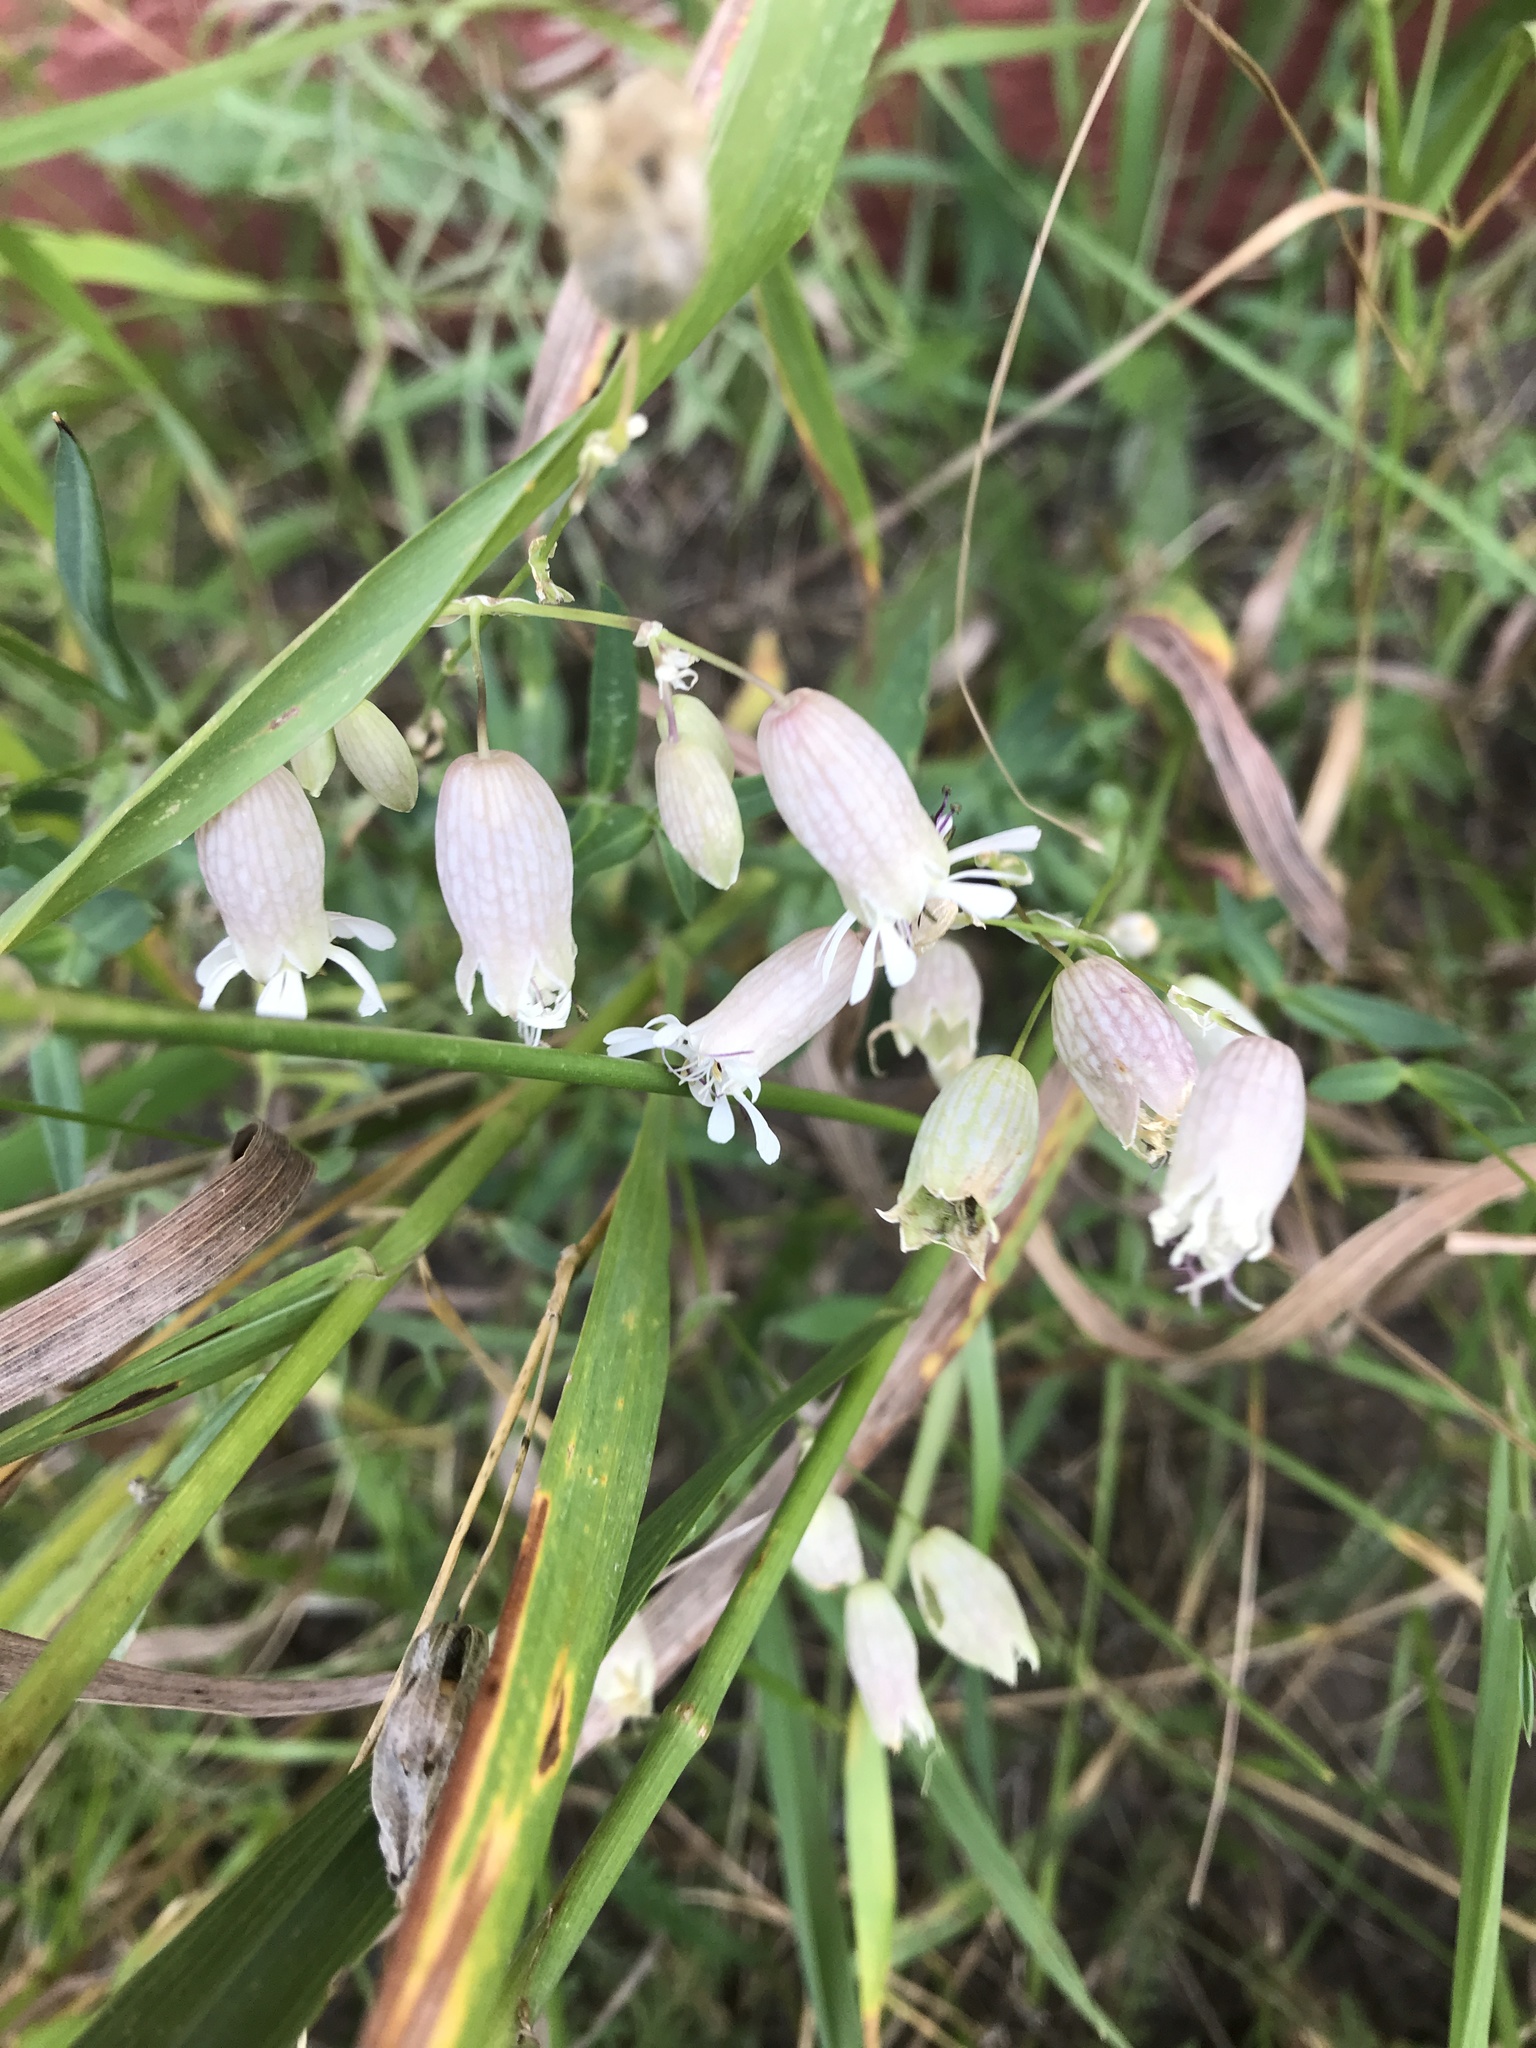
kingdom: Plantae
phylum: Tracheophyta
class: Magnoliopsida
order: Caryophyllales
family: Caryophyllaceae
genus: Silene
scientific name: Silene vulgaris
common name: Bladder campion
